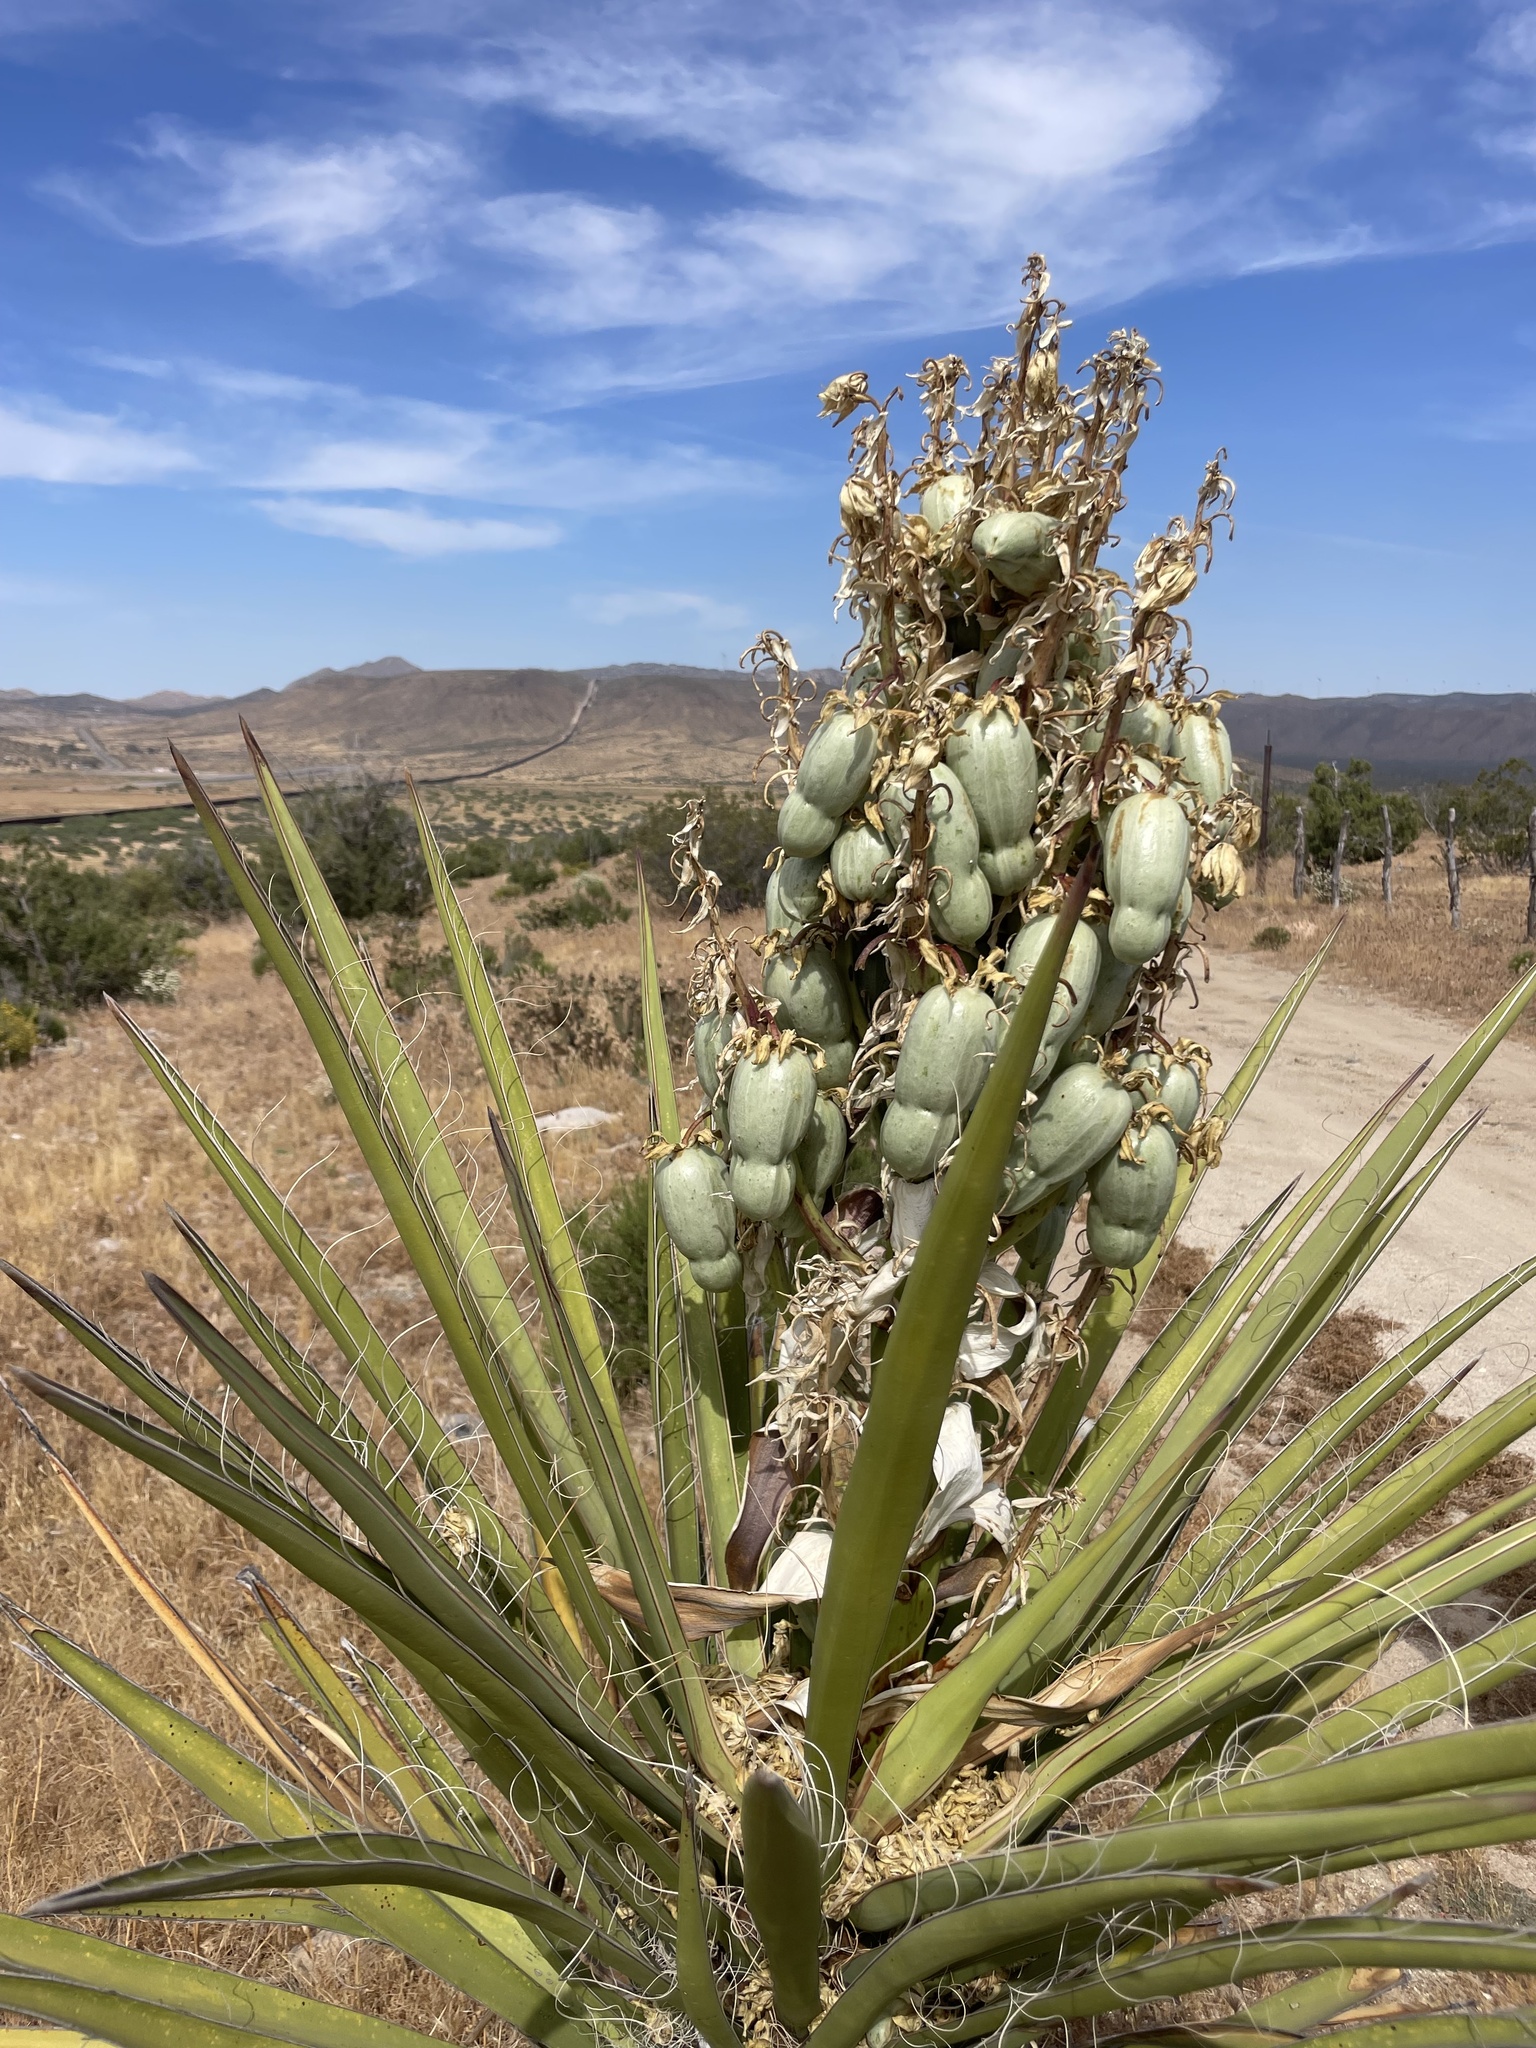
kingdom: Plantae
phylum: Tracheophyta
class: Liliopsida
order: Asparagales
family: Asparagaceae
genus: Yucca
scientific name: Yucca schidigera
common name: Mojave yucca
